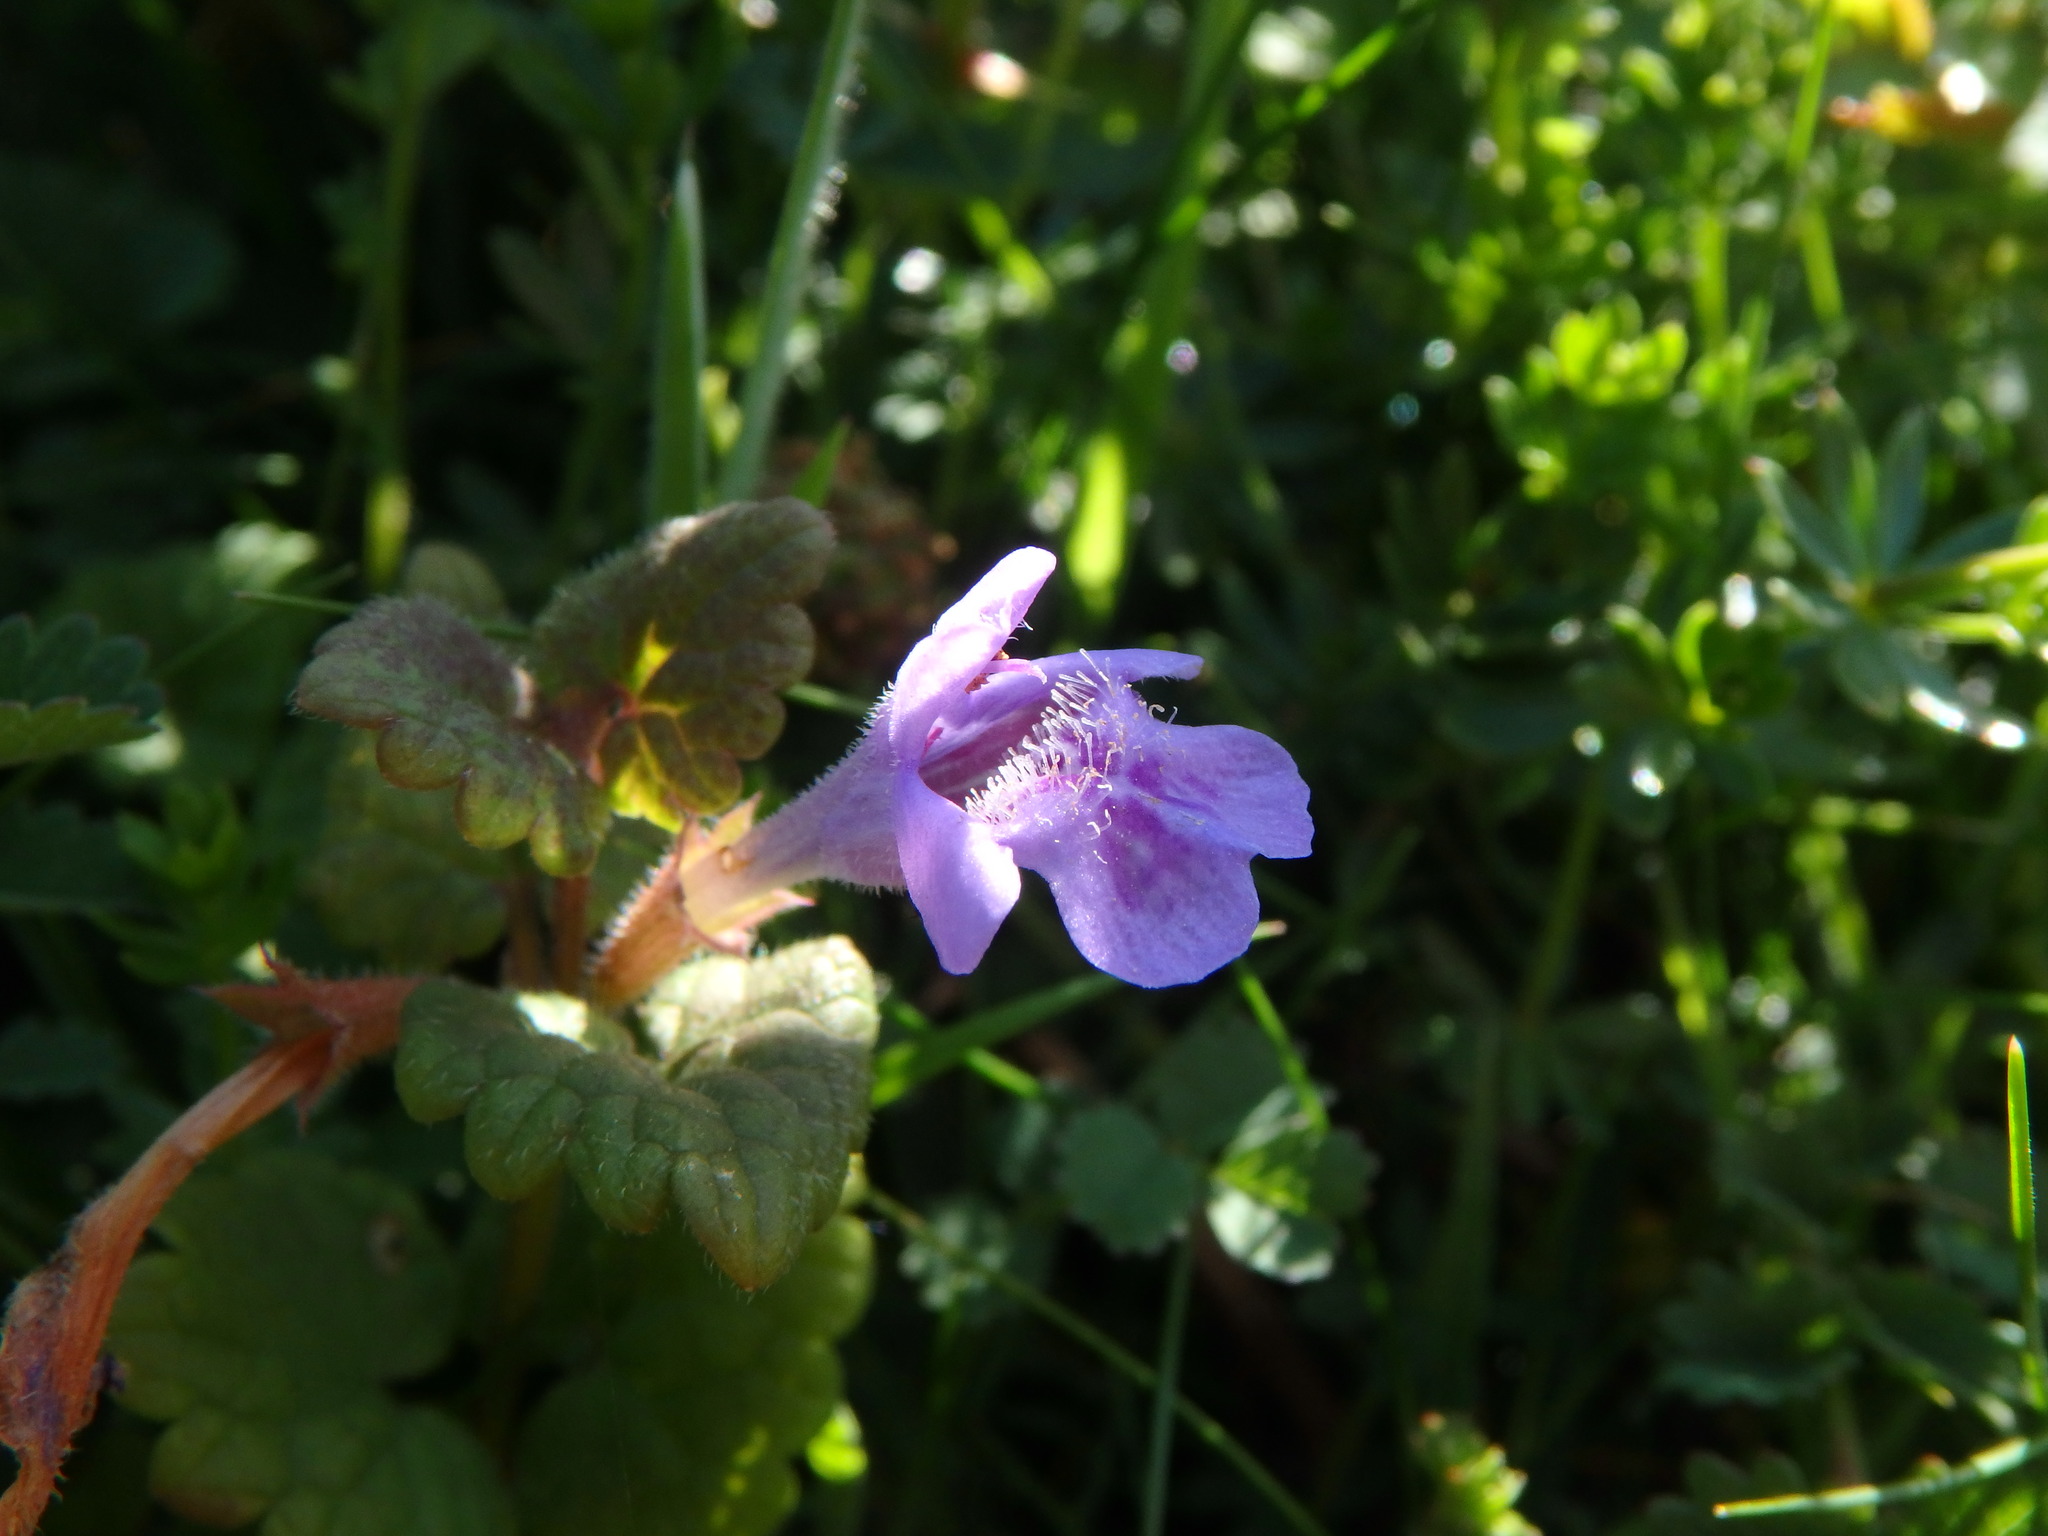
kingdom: Plantae
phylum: Tracheophyta
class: Magnoliopsida
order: Lamiales
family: Lamiaceae
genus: Glechoma
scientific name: Glechoma hederacea
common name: Ground ivy
